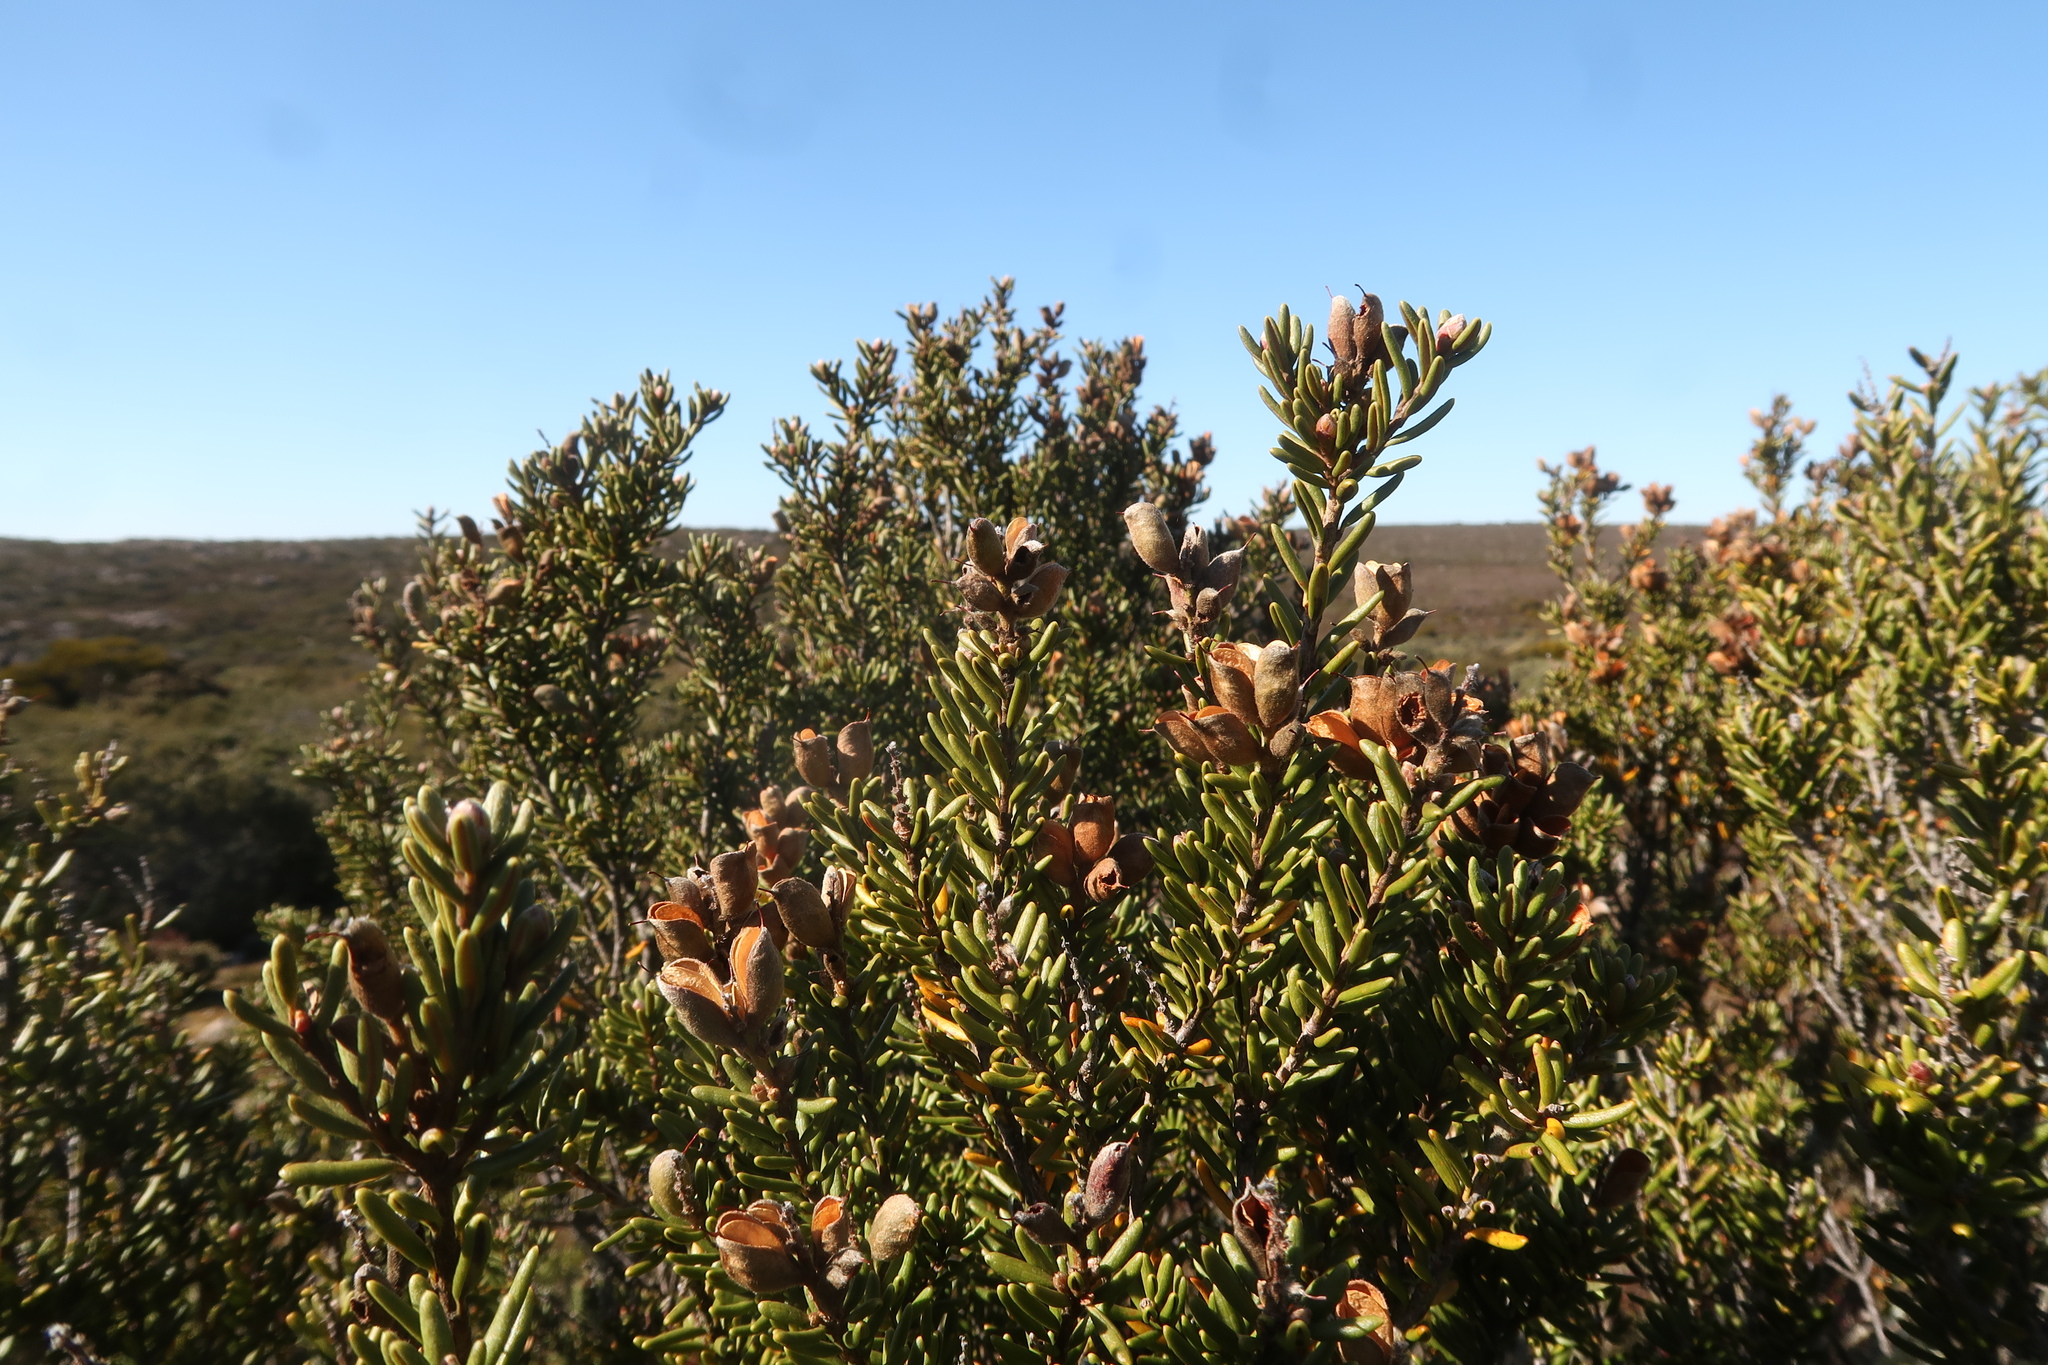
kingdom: Plantae
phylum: Tracheophyta
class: Magnoliopsida
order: Proteales
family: Proteaceae
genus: Orites
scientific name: Orites revolutus
